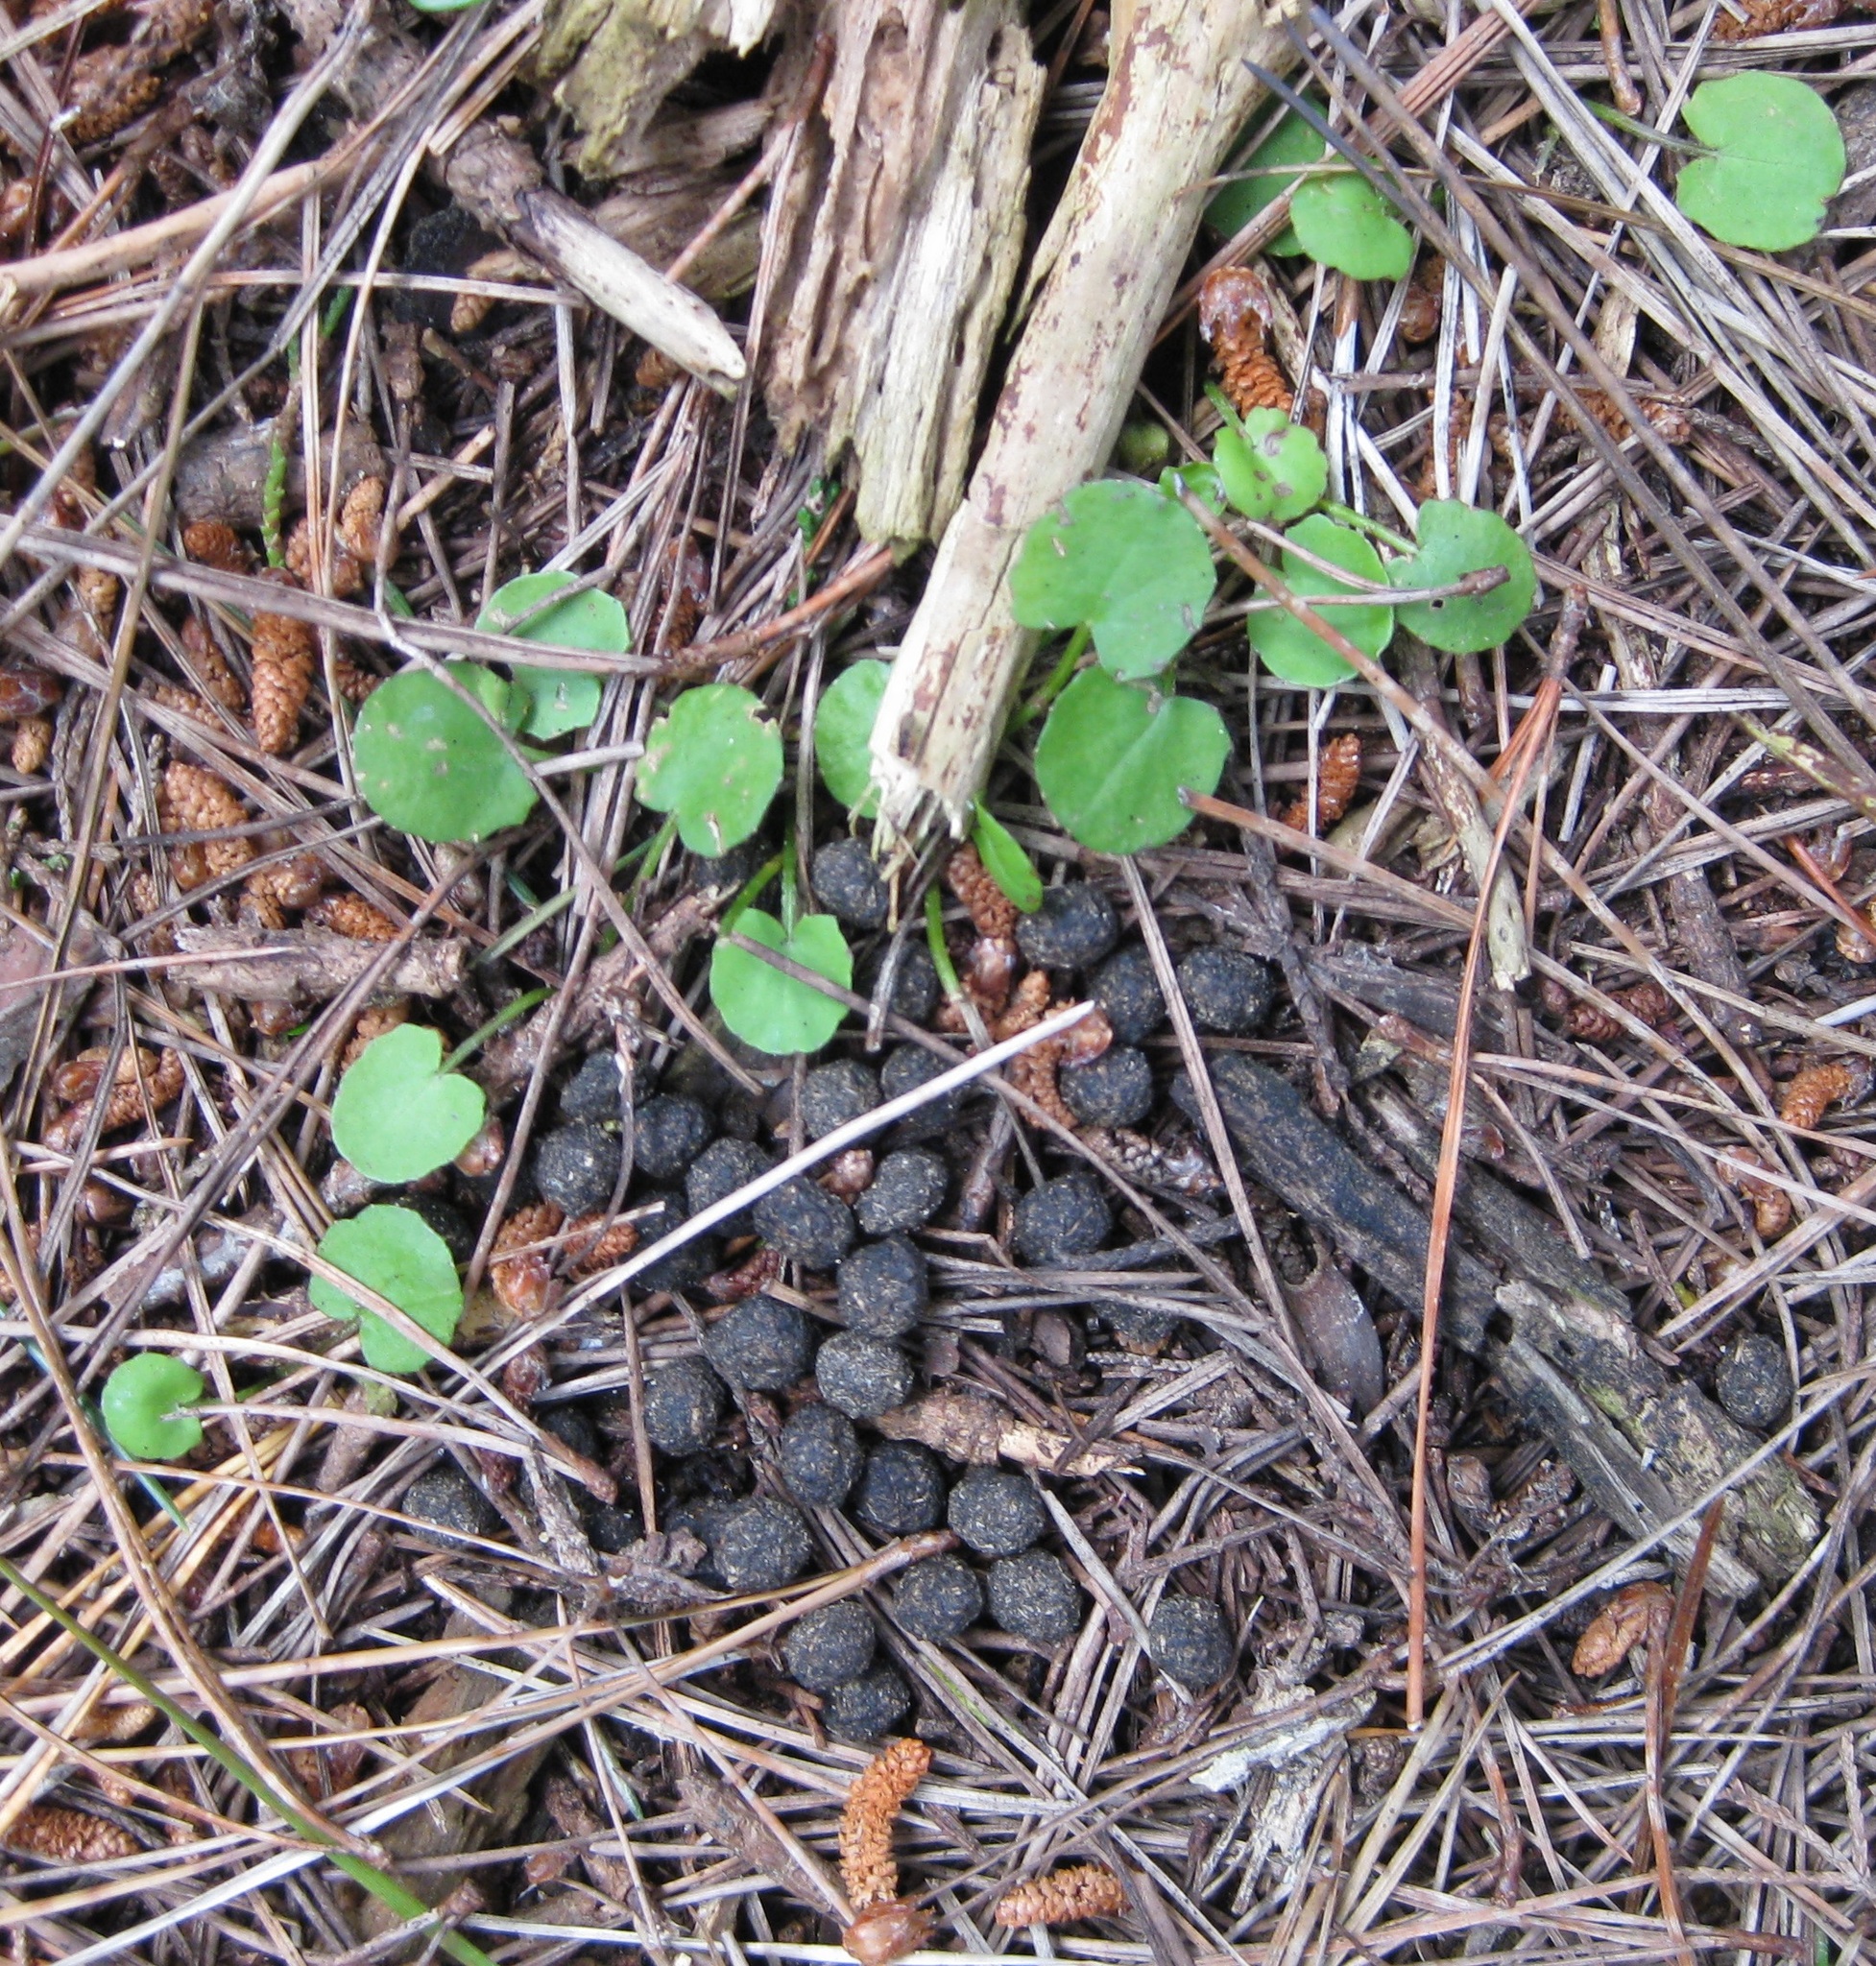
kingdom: Animalia
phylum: Chordata
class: Mammalia
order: Lagomorpha
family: Leporidae
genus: Oryctolagus
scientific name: Oryctolagus cuniculus
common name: European rabbit
